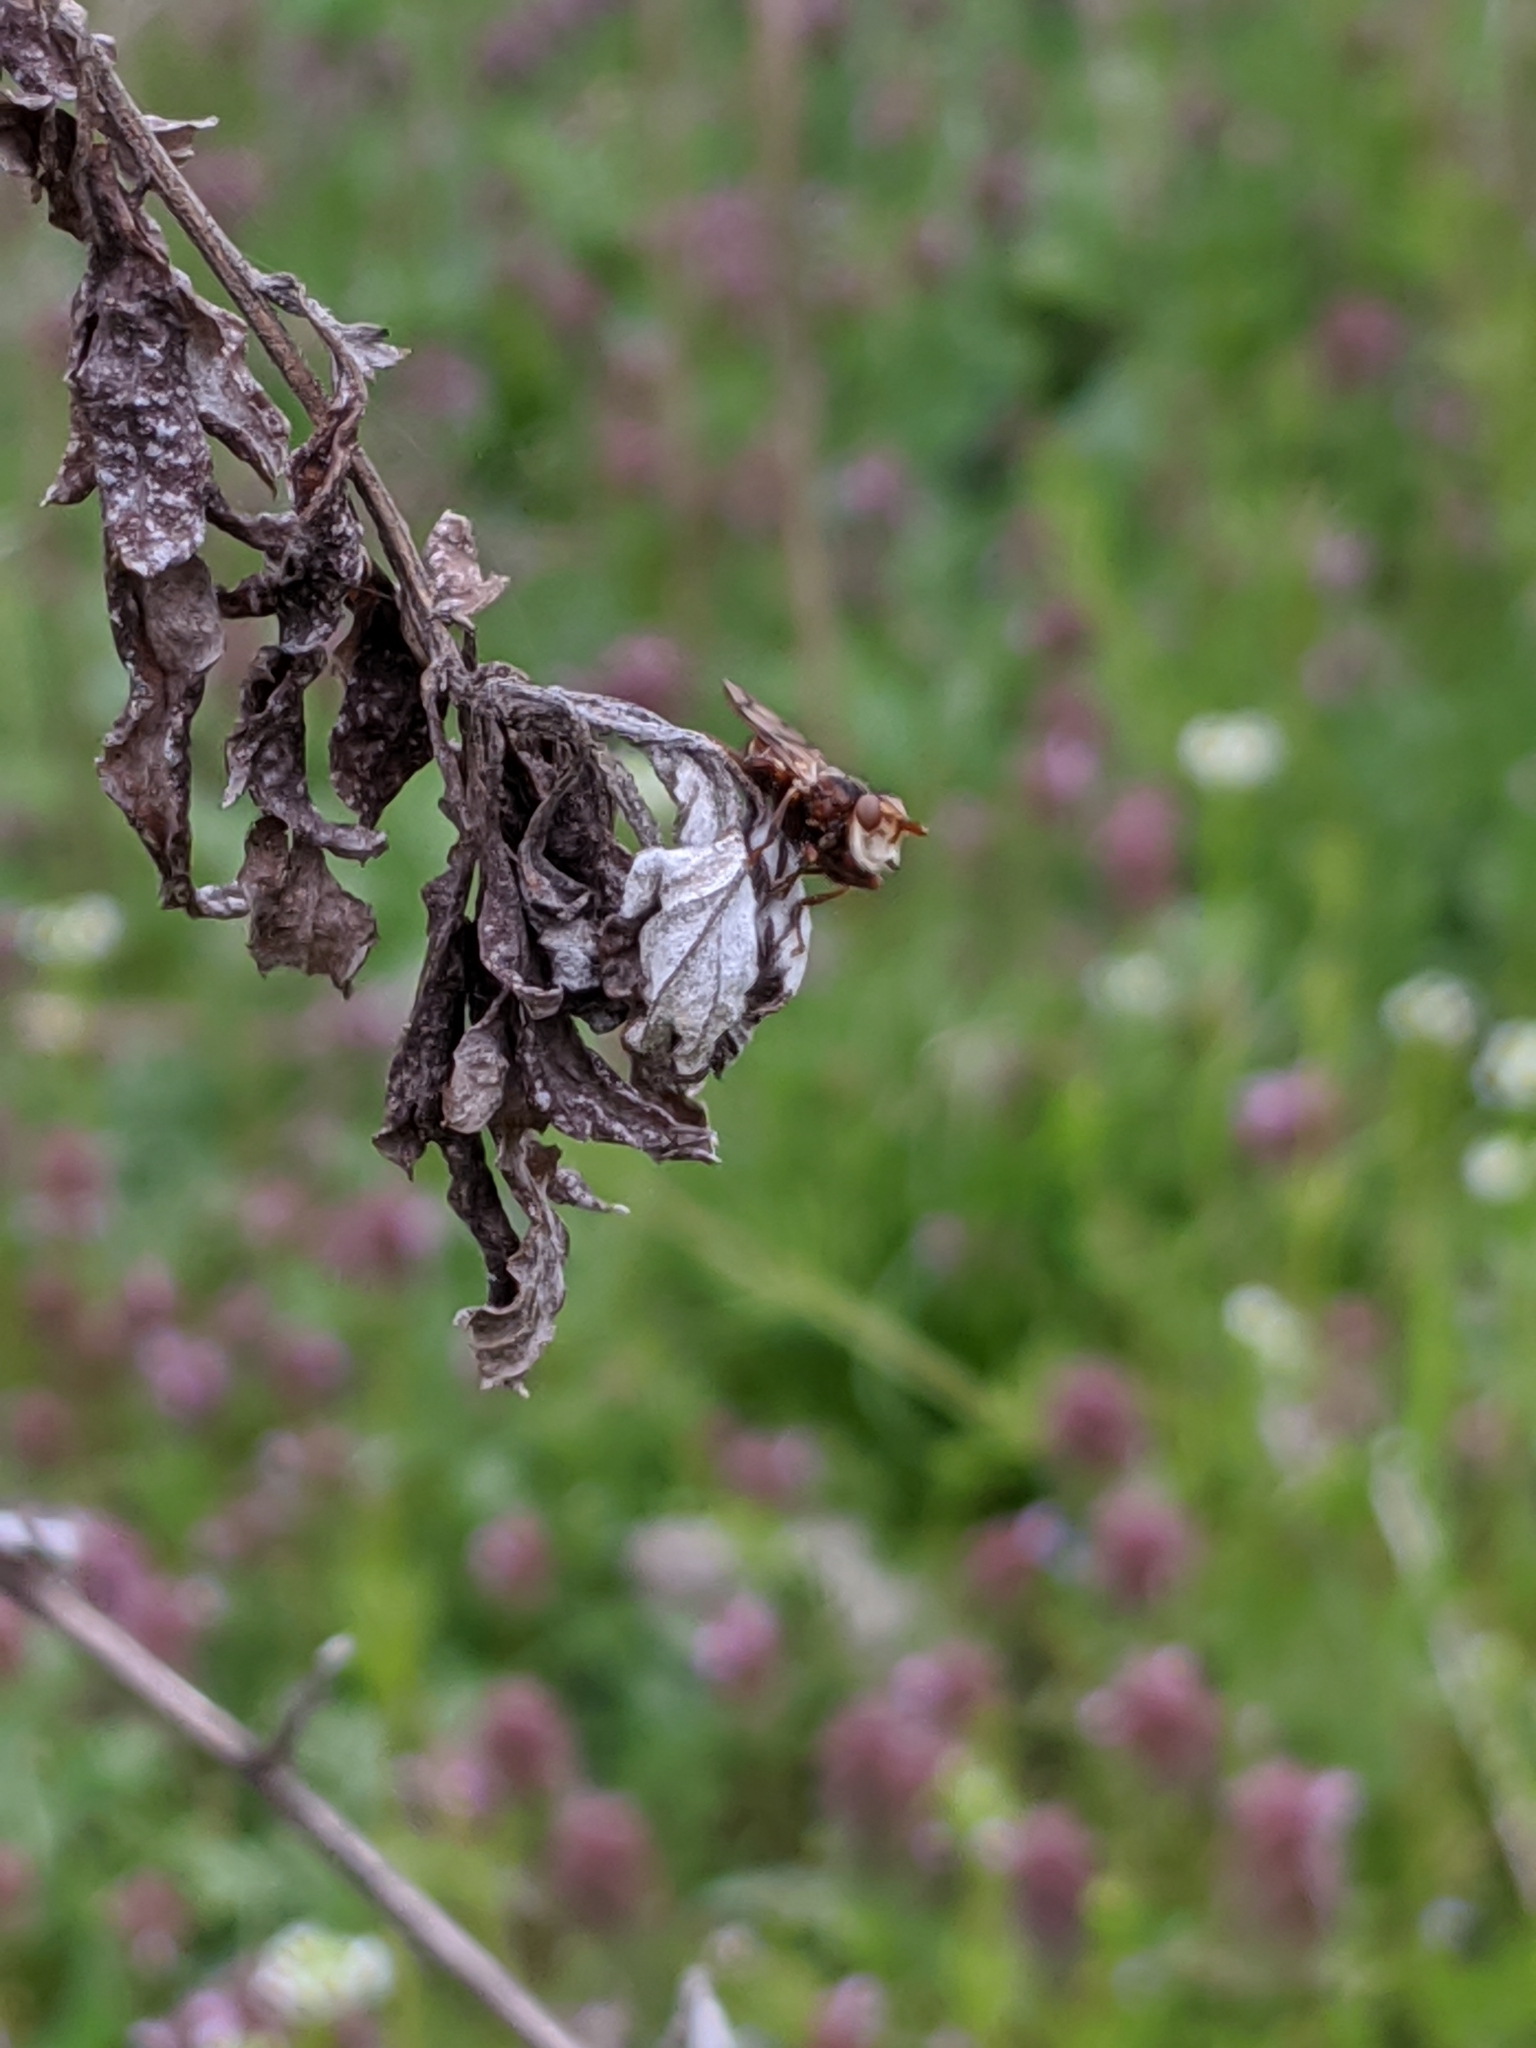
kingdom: Animalia
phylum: Arthropoda
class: Insecta
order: Diptera
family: Conopidae
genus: Myopa
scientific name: Myopa vicaria
